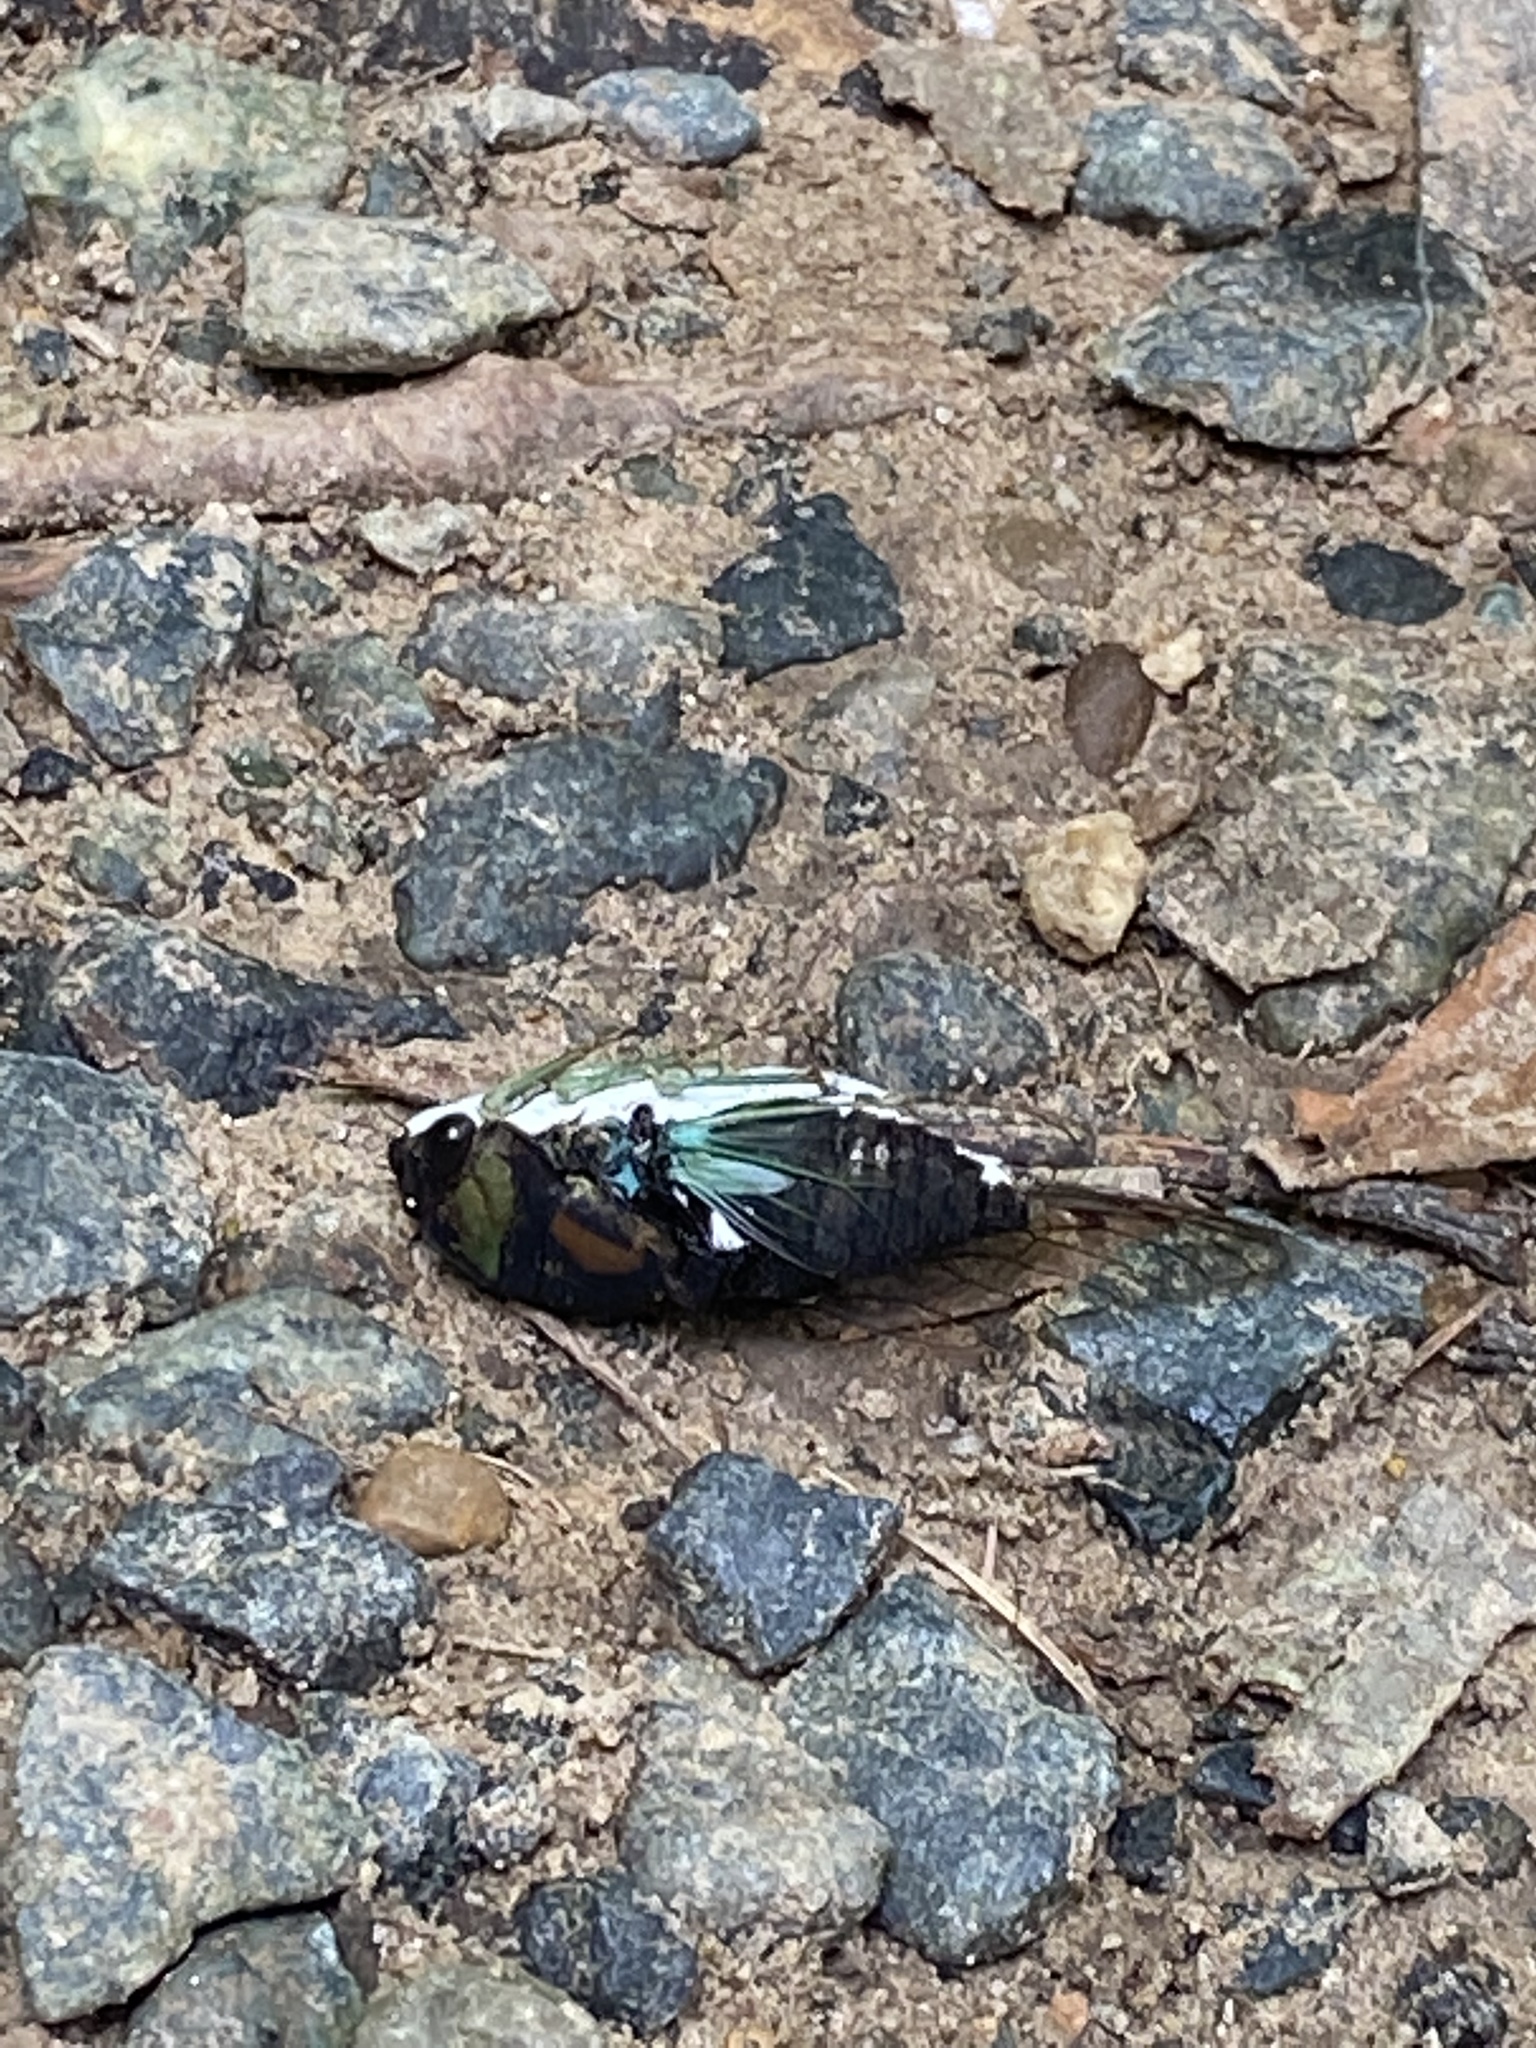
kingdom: Animalia
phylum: Arthropoda
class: Insecta
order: Hemiptera
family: Cicadidae
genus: Neotibicen
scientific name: Neotibicen tibicen
